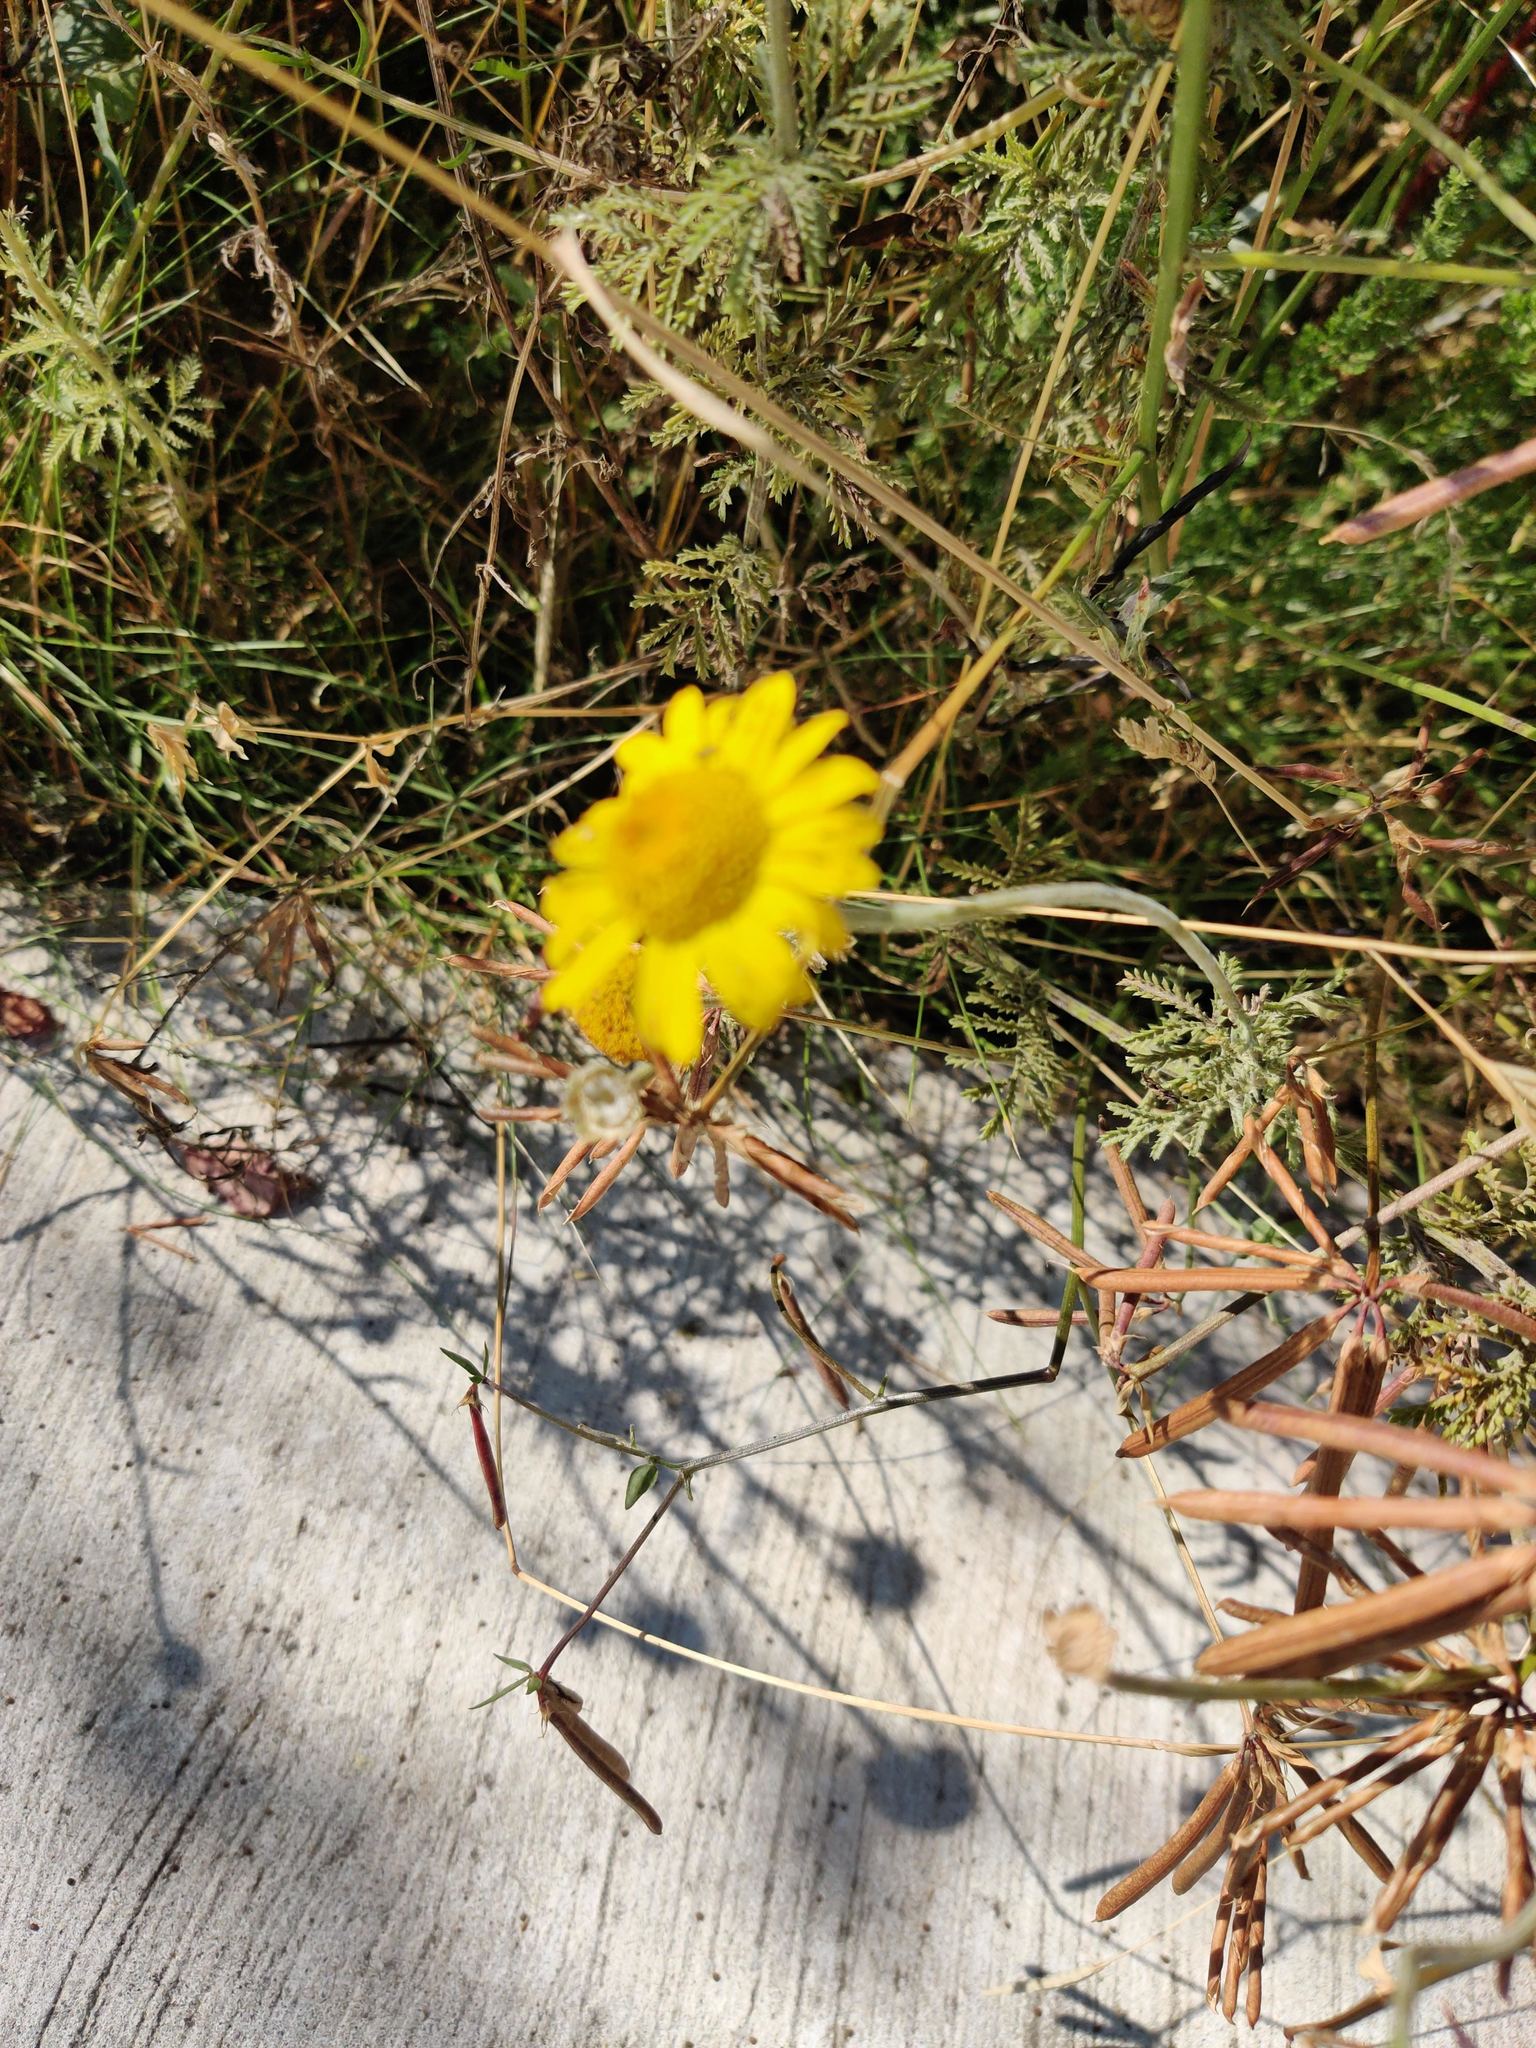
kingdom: Plantae
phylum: Tracheophyta
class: Magnoliopsida
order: Asterales
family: Asteraceae
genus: Cota
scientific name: Cota tinctoria
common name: Golden chamomile
